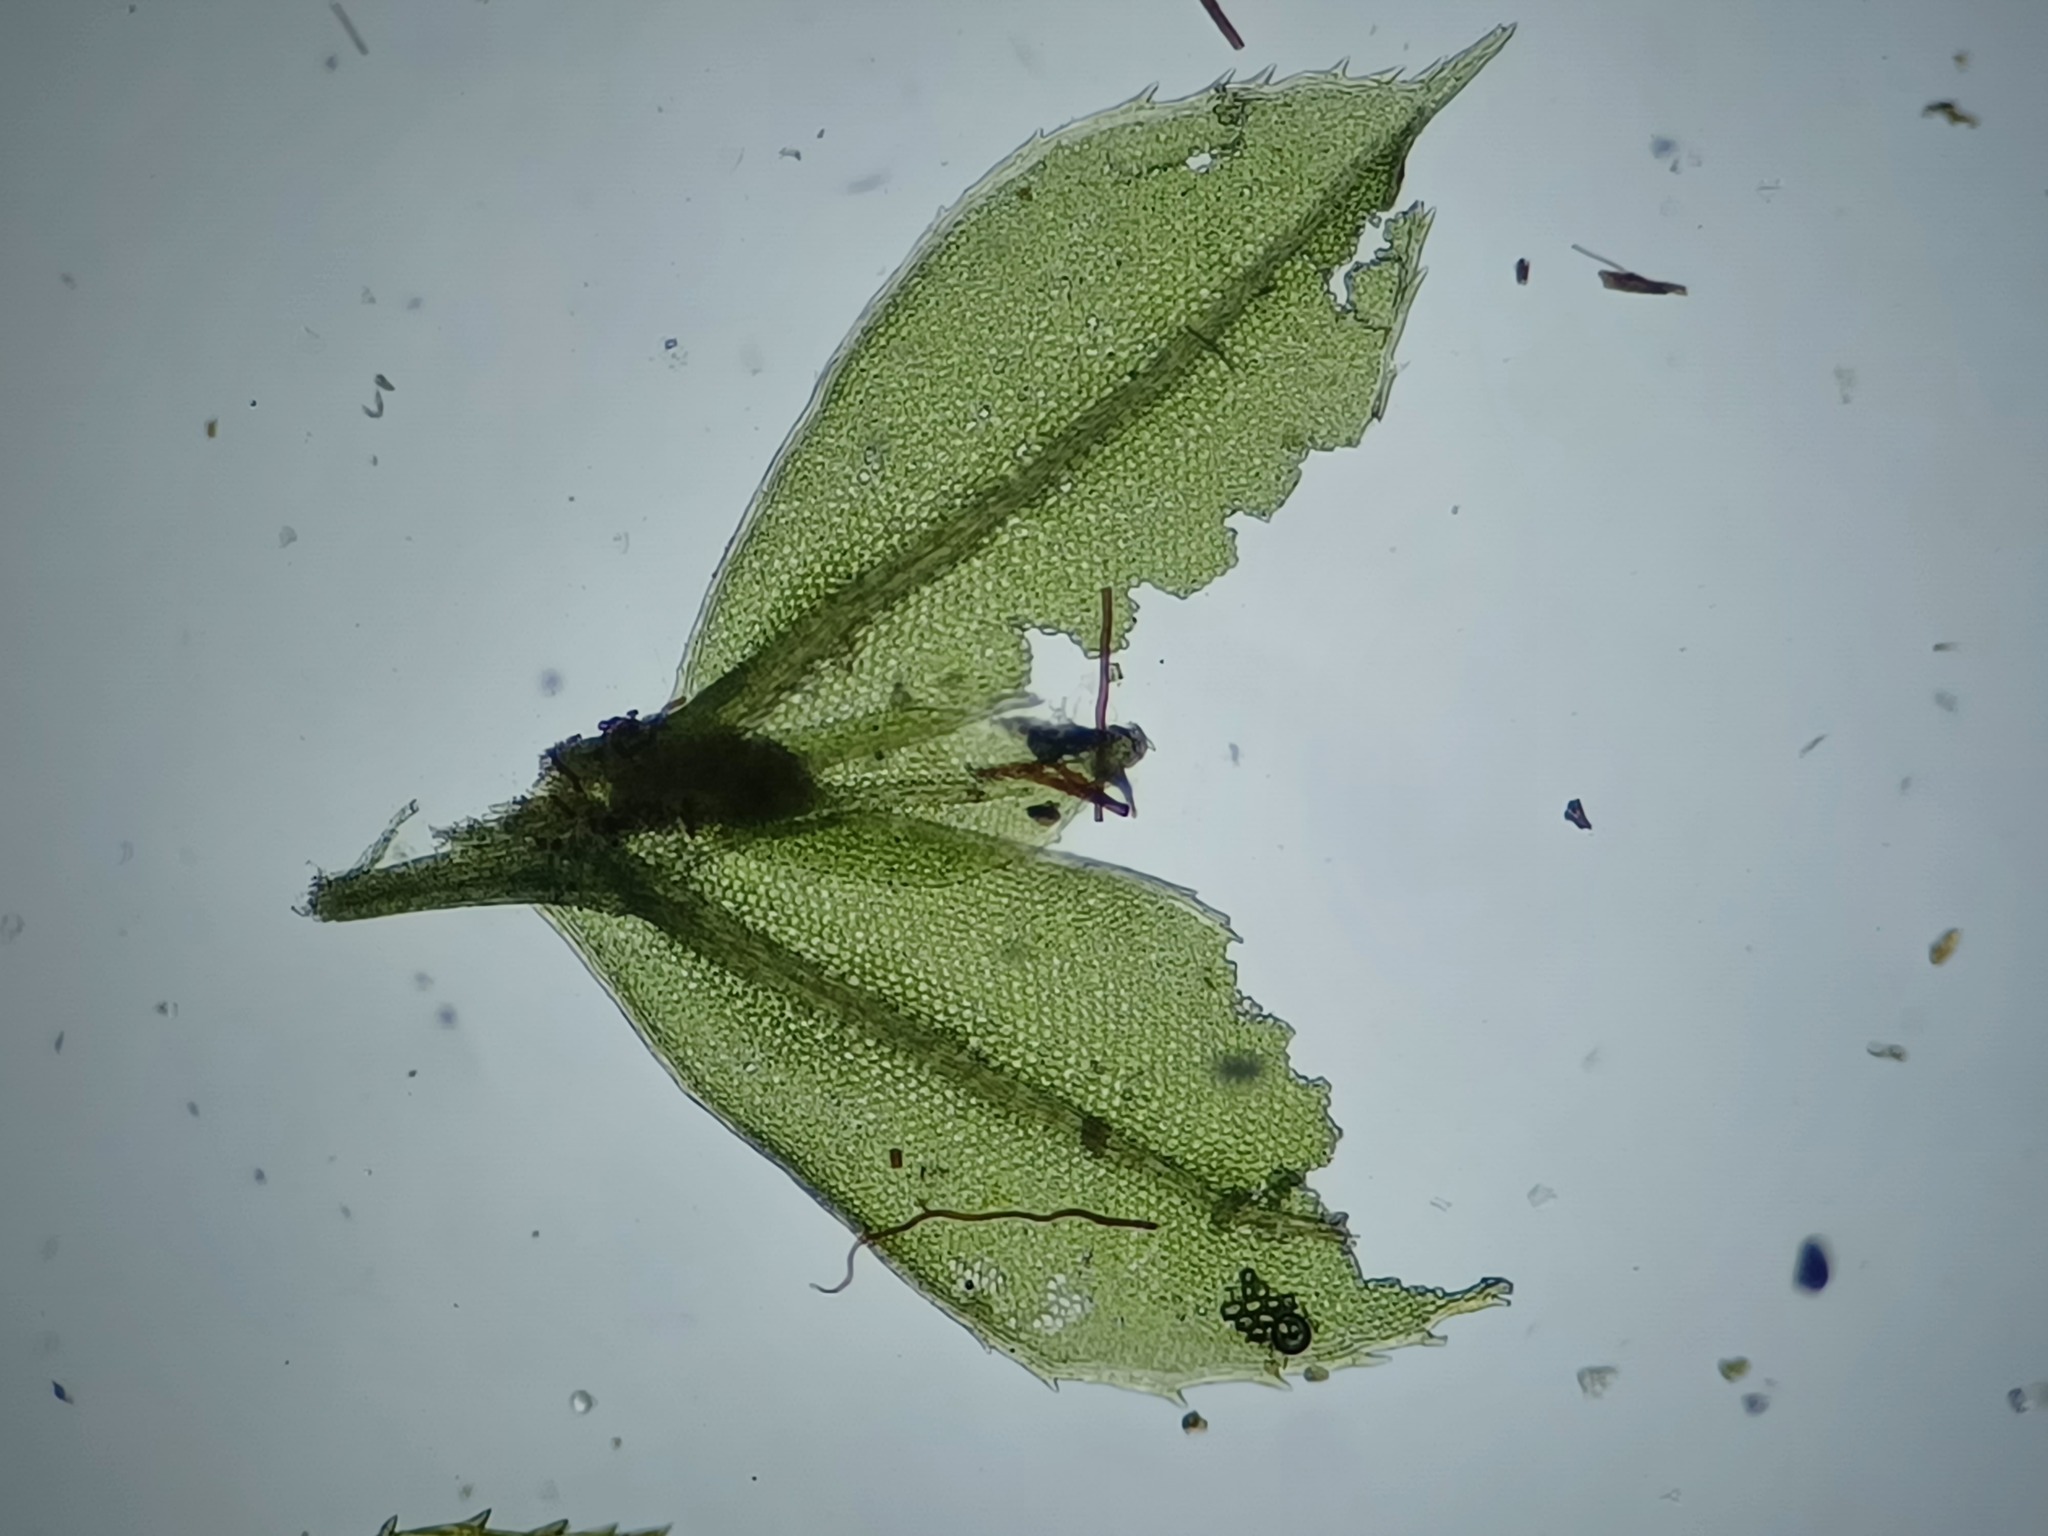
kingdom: Plantae
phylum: Bryophyta
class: Bryopsida
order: Bryales
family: Mniaceae
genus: Plagiomnium
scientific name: Plagiomnium cuspidatum
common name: Woodsy leafy moss
